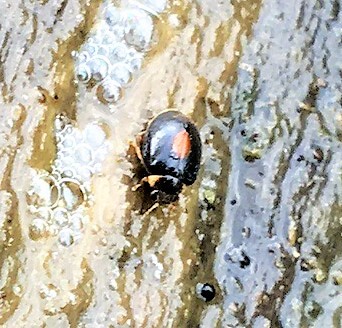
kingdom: Animalia
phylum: Arthropoda
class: Insecta
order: Coleoptera
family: Scirtidae
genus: Scirtes
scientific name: Scirtes orbiculatus
